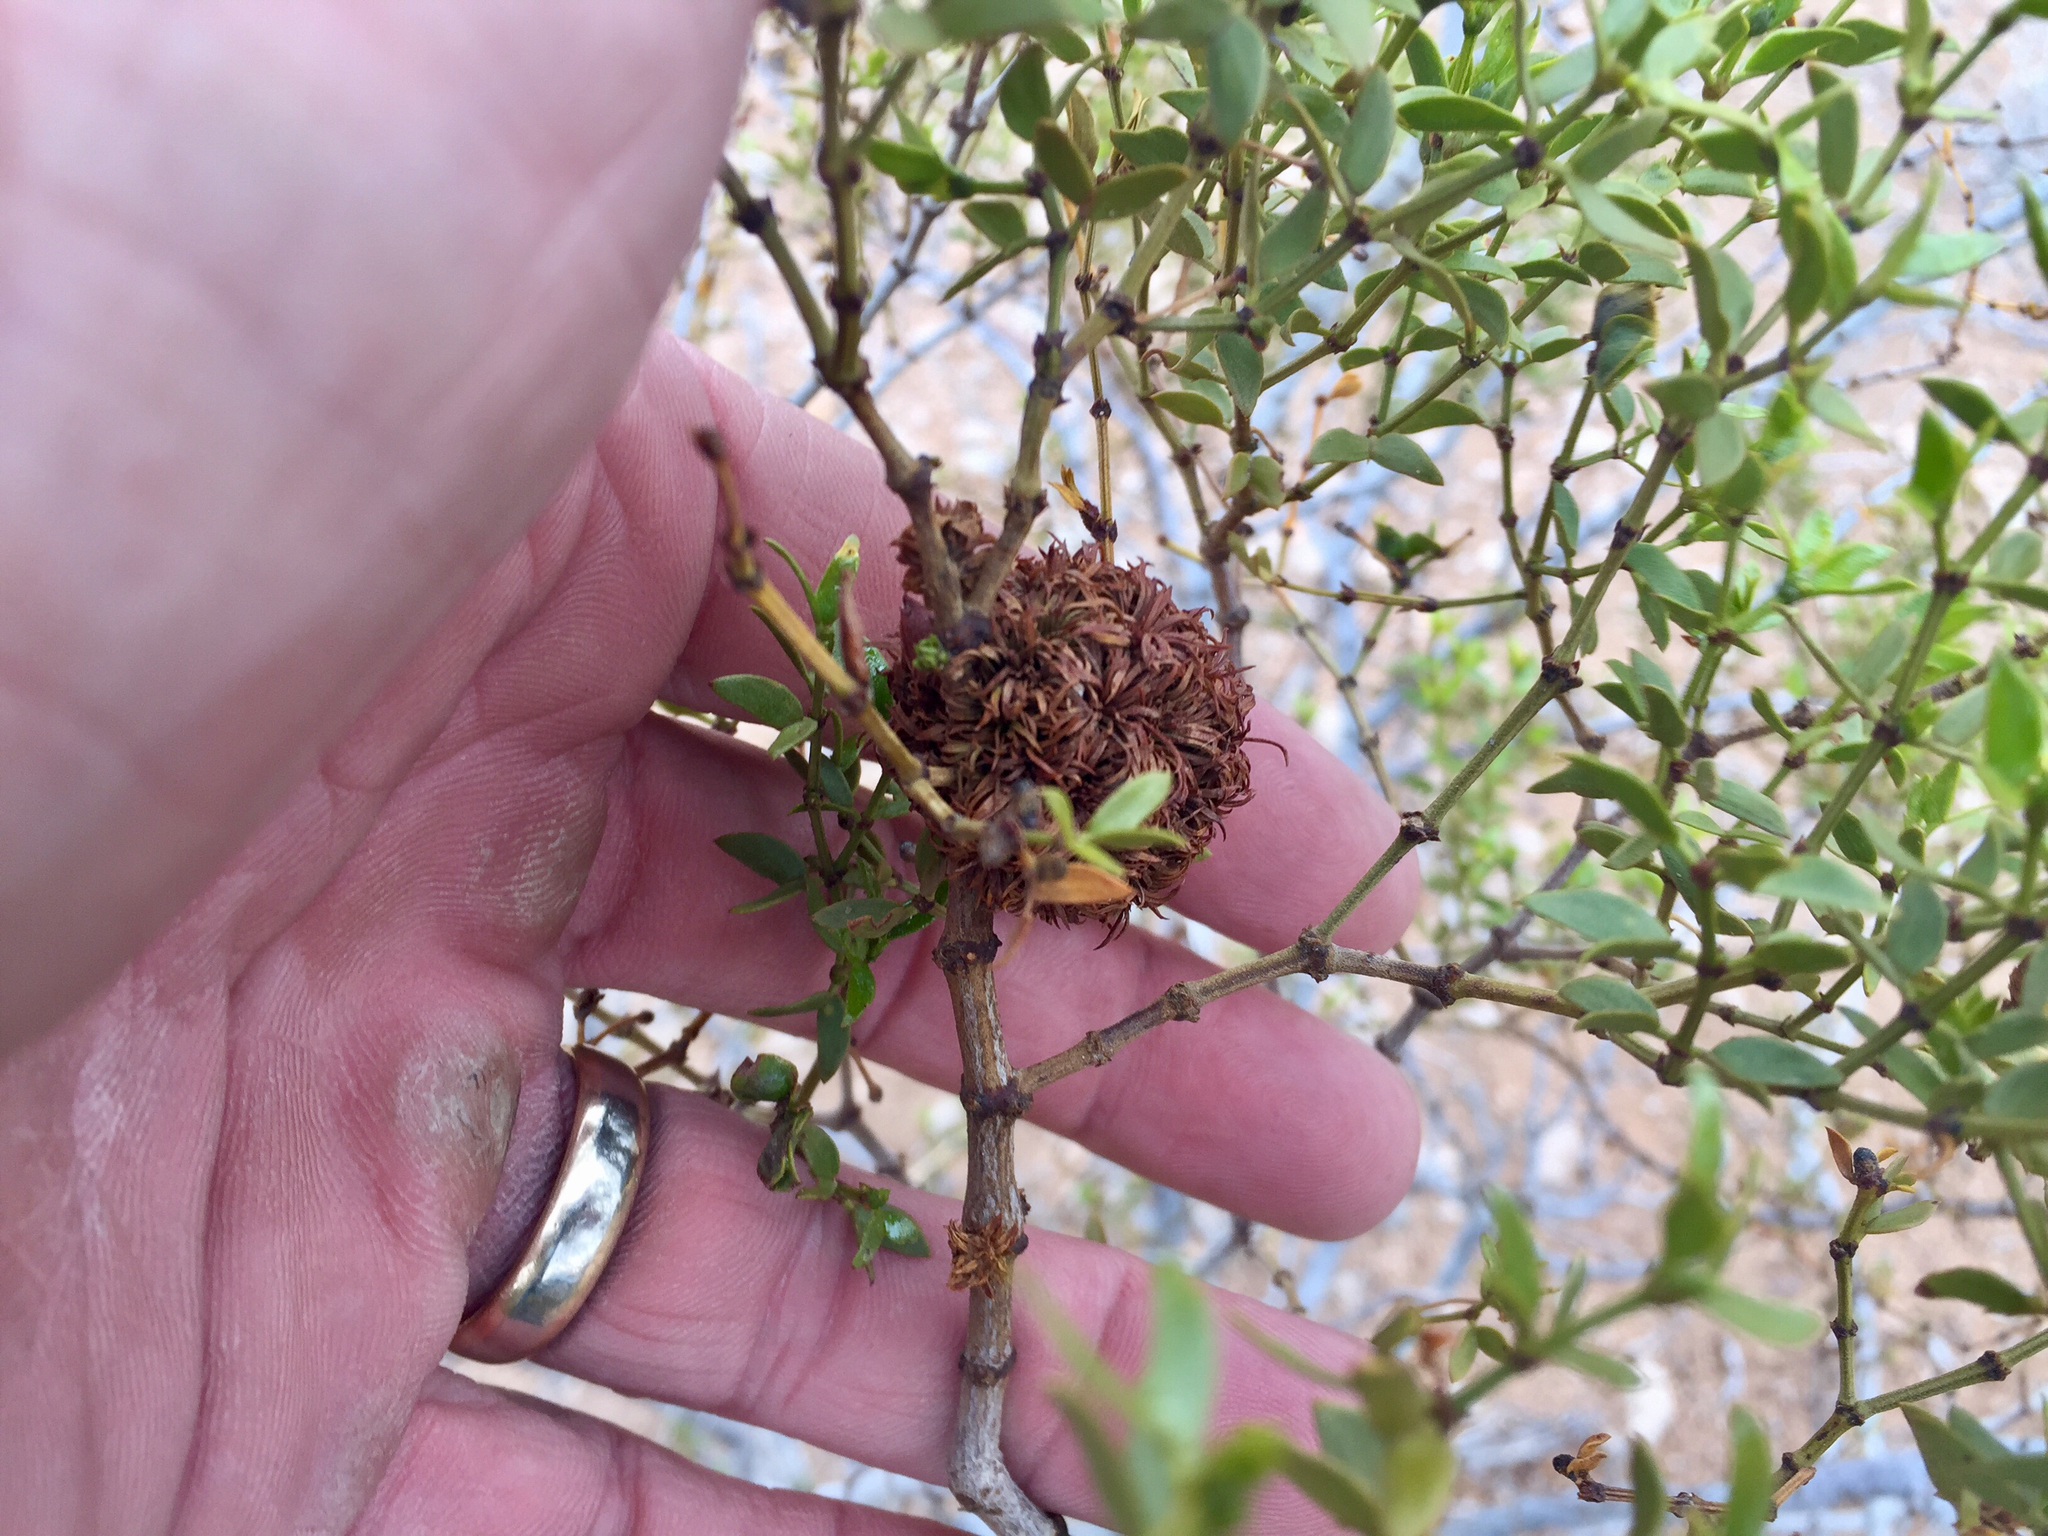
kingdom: Animalia
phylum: Arthropoda
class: Insecta
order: Diptera
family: Cecidomyiidae
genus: Asphondylia
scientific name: Asphondylia auripila
